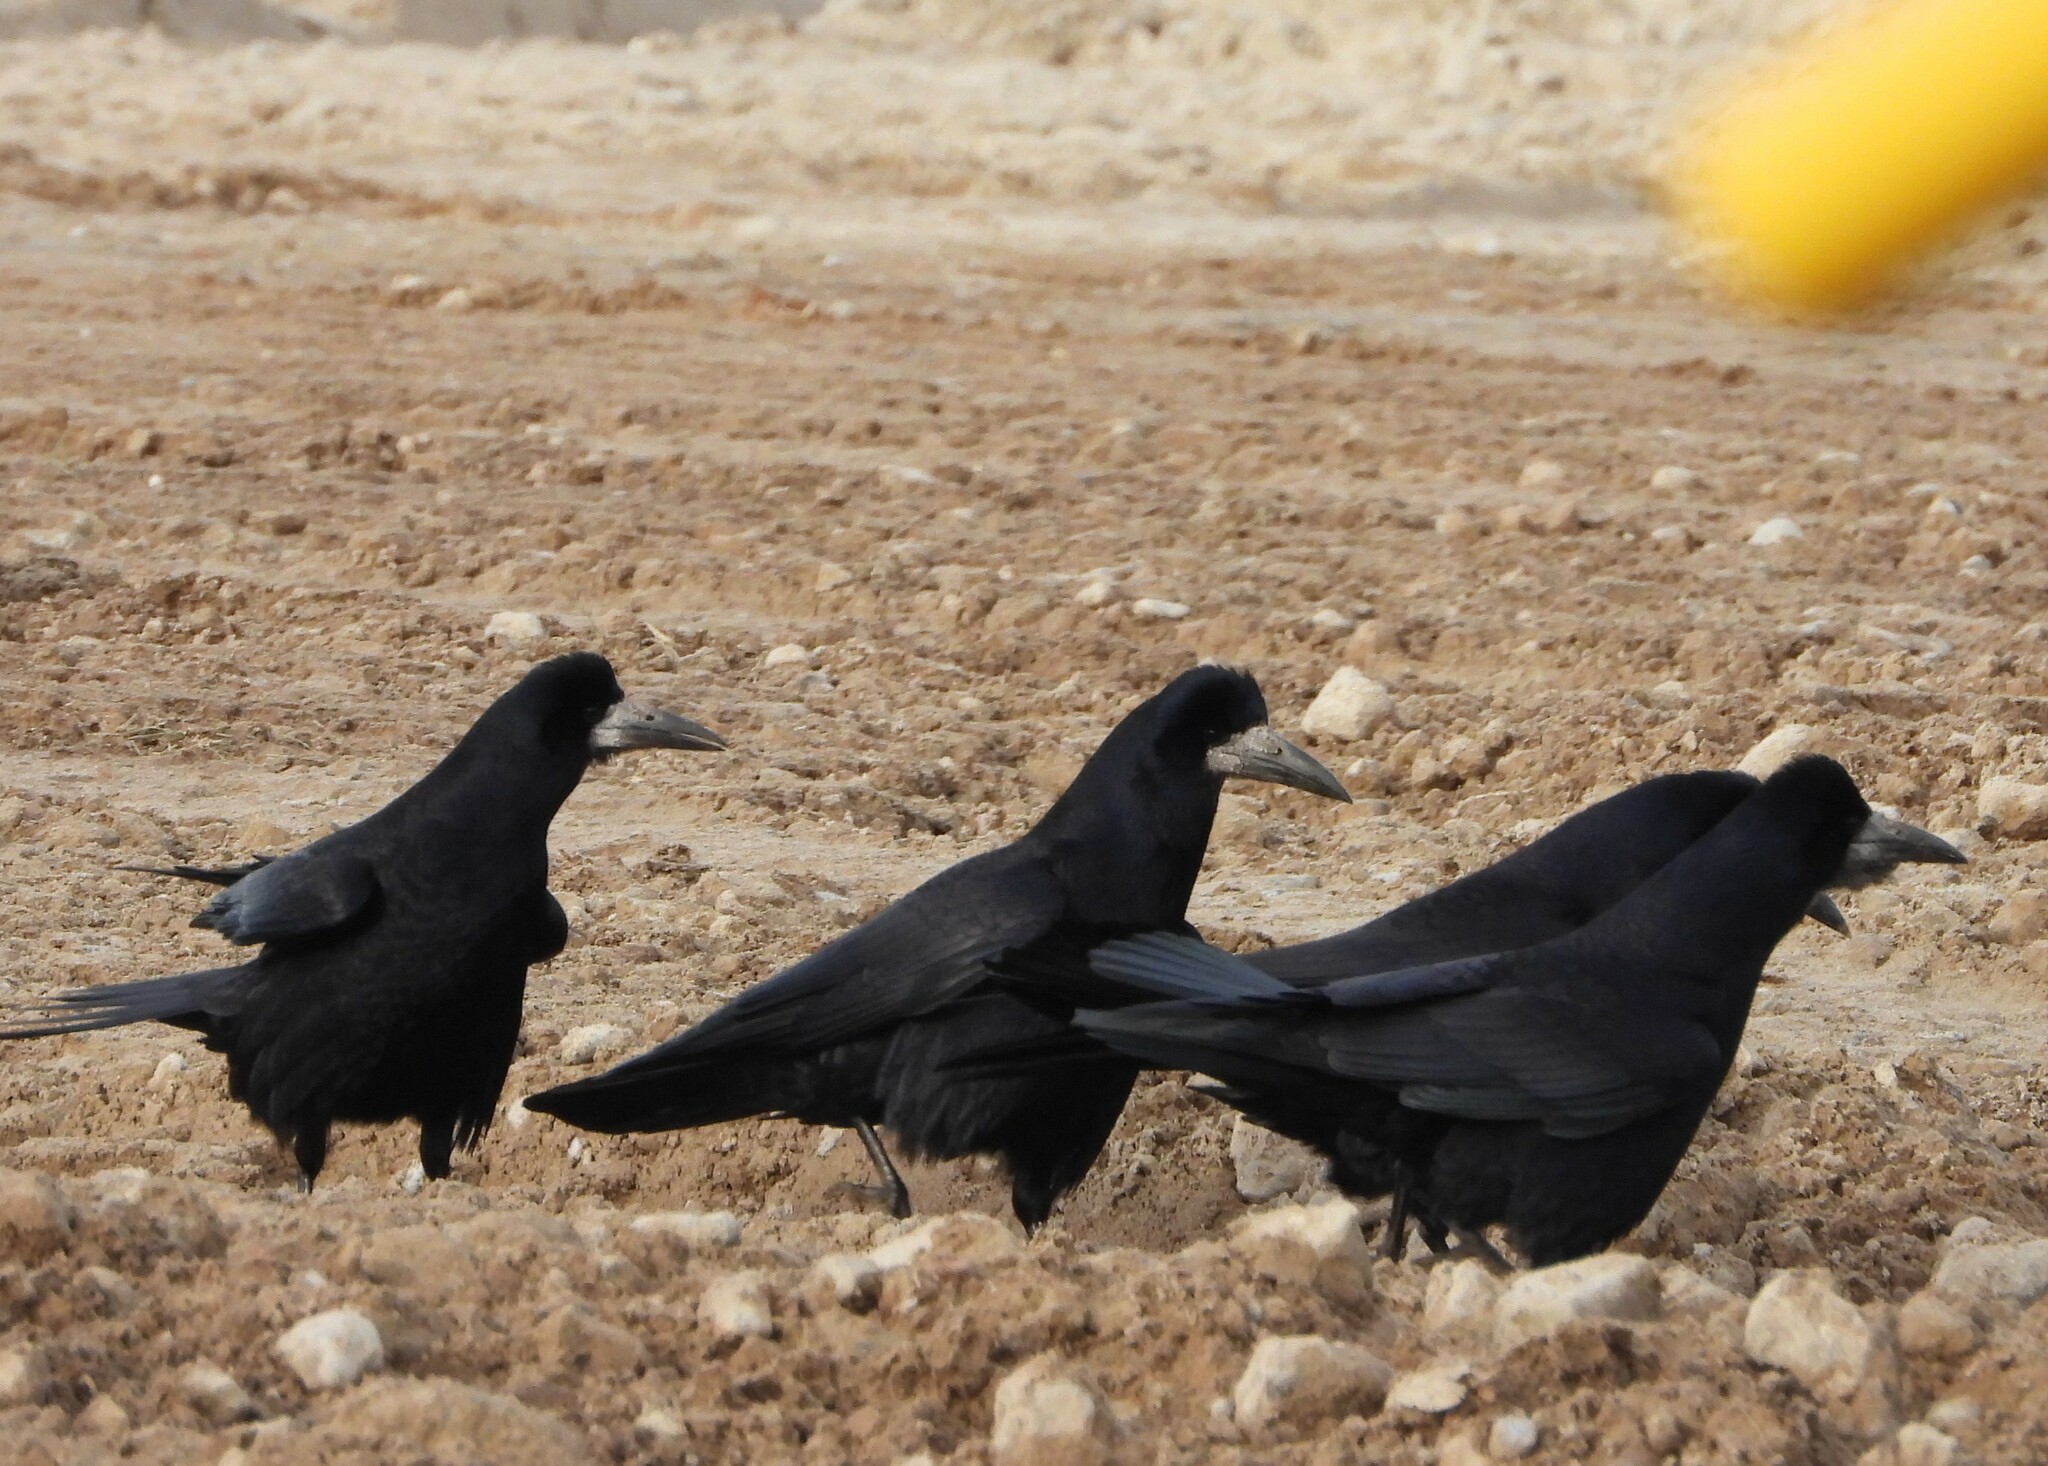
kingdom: Animalia
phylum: Chordata
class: Aves
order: Passeriformes
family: Corvidae
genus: Corvus
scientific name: Corvus frugilegus
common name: Rook
